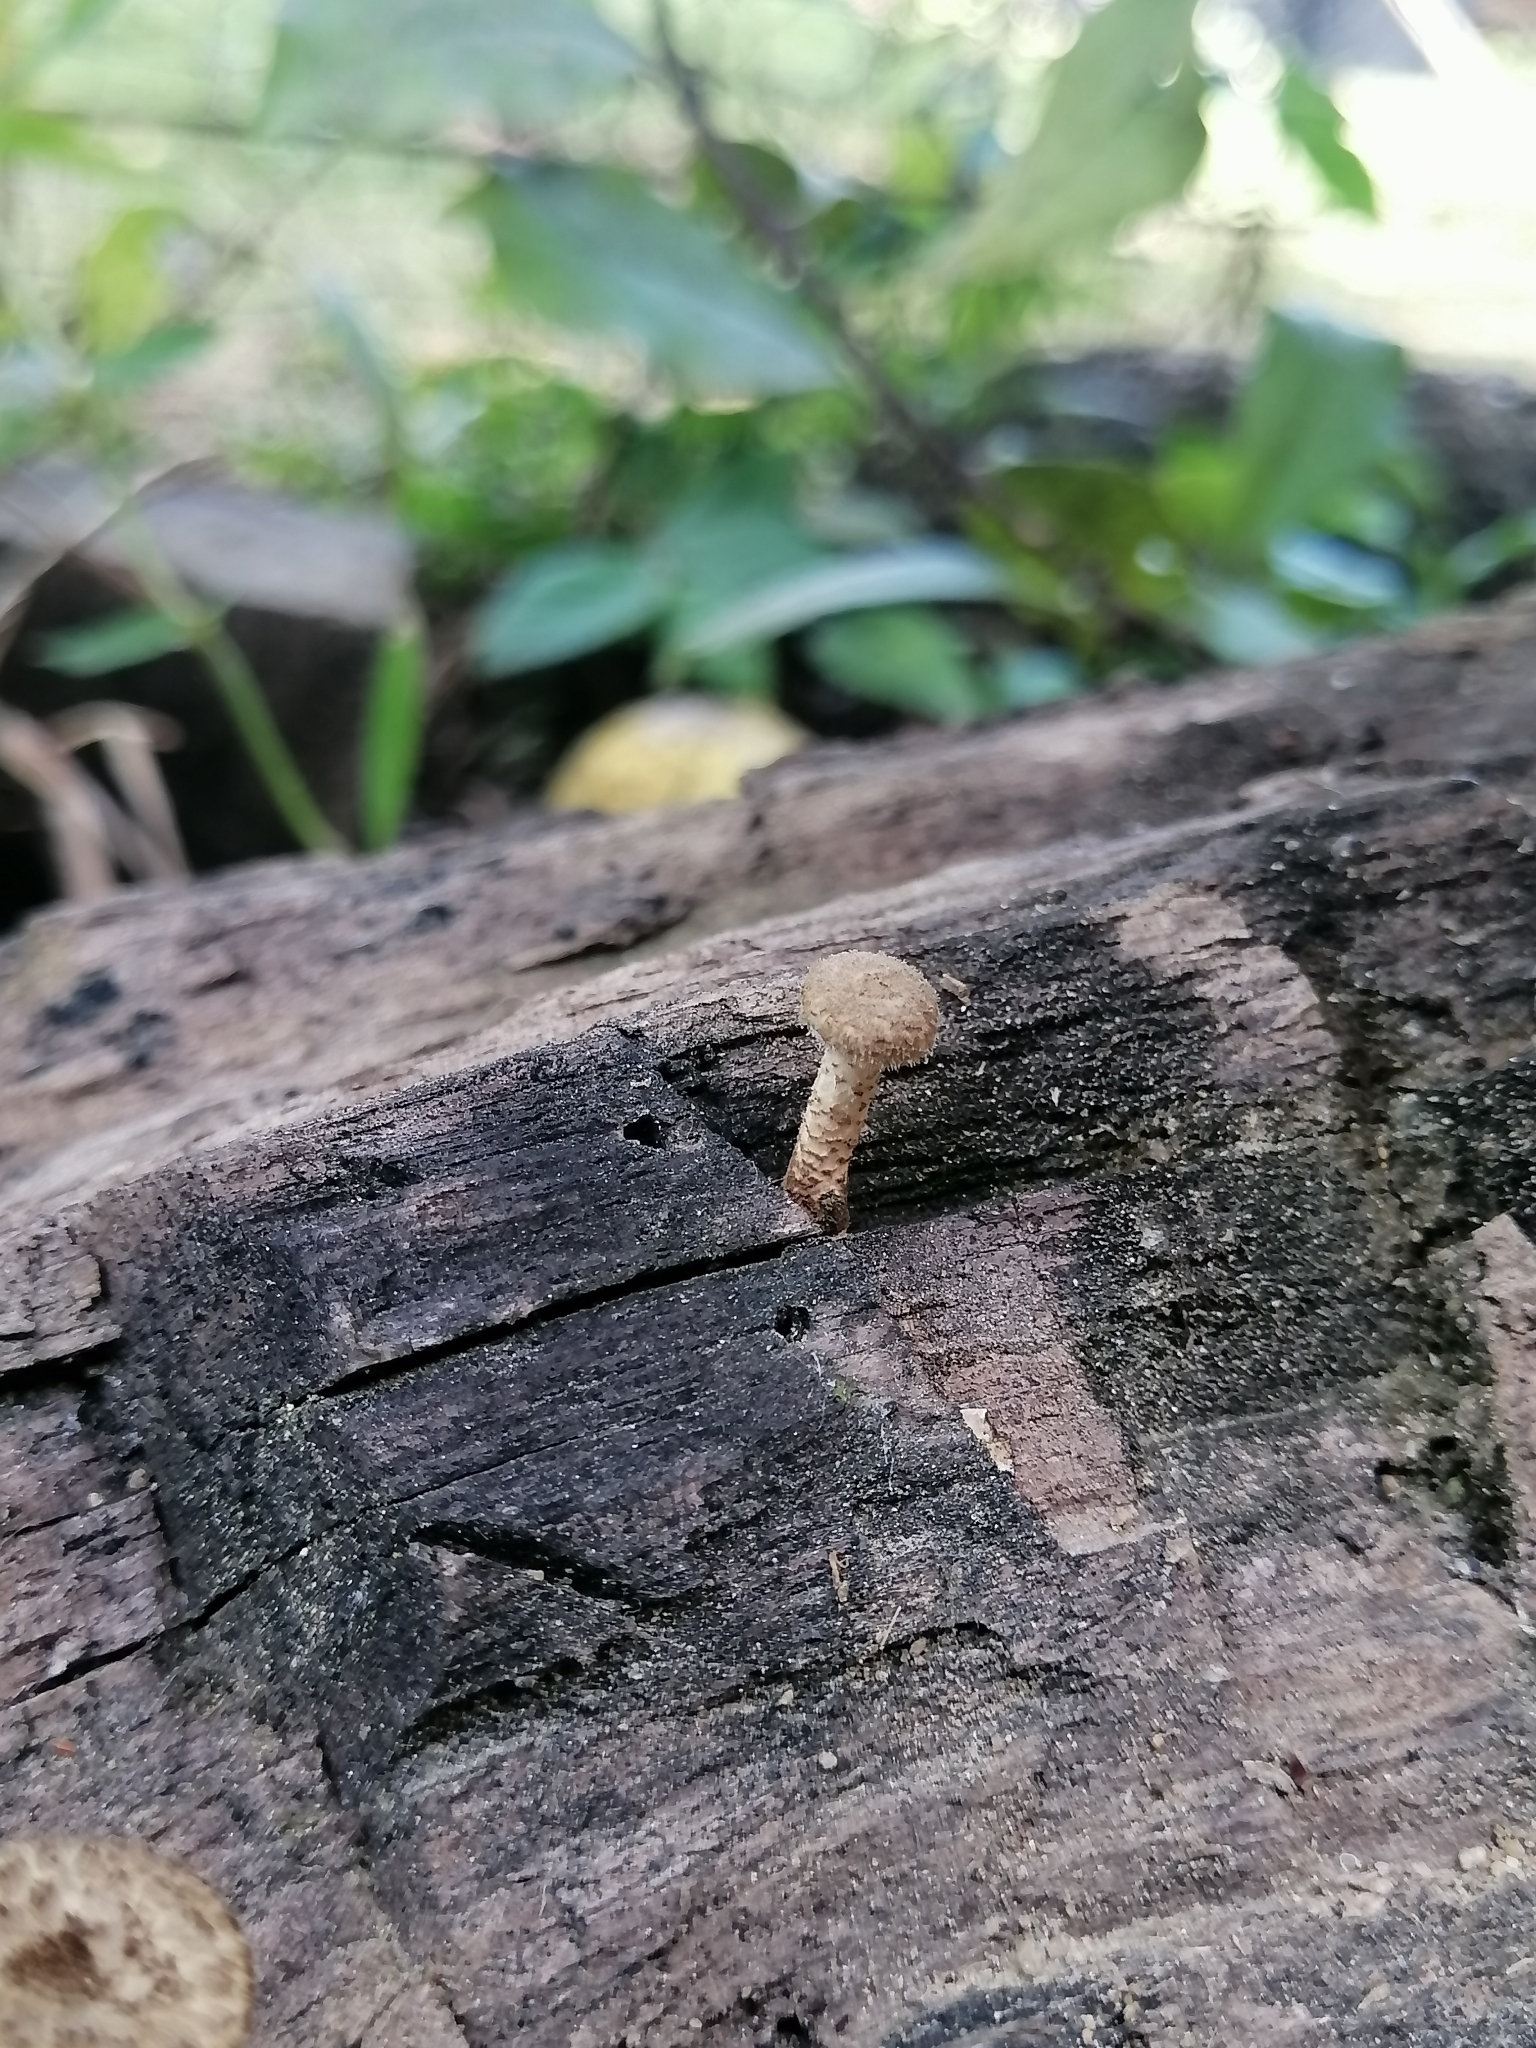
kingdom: Fungi
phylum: Basidiomycota
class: Agaricomycetes
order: Polyporales
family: Polyporaceae
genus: Lentinus
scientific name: Lentinus crinitus
